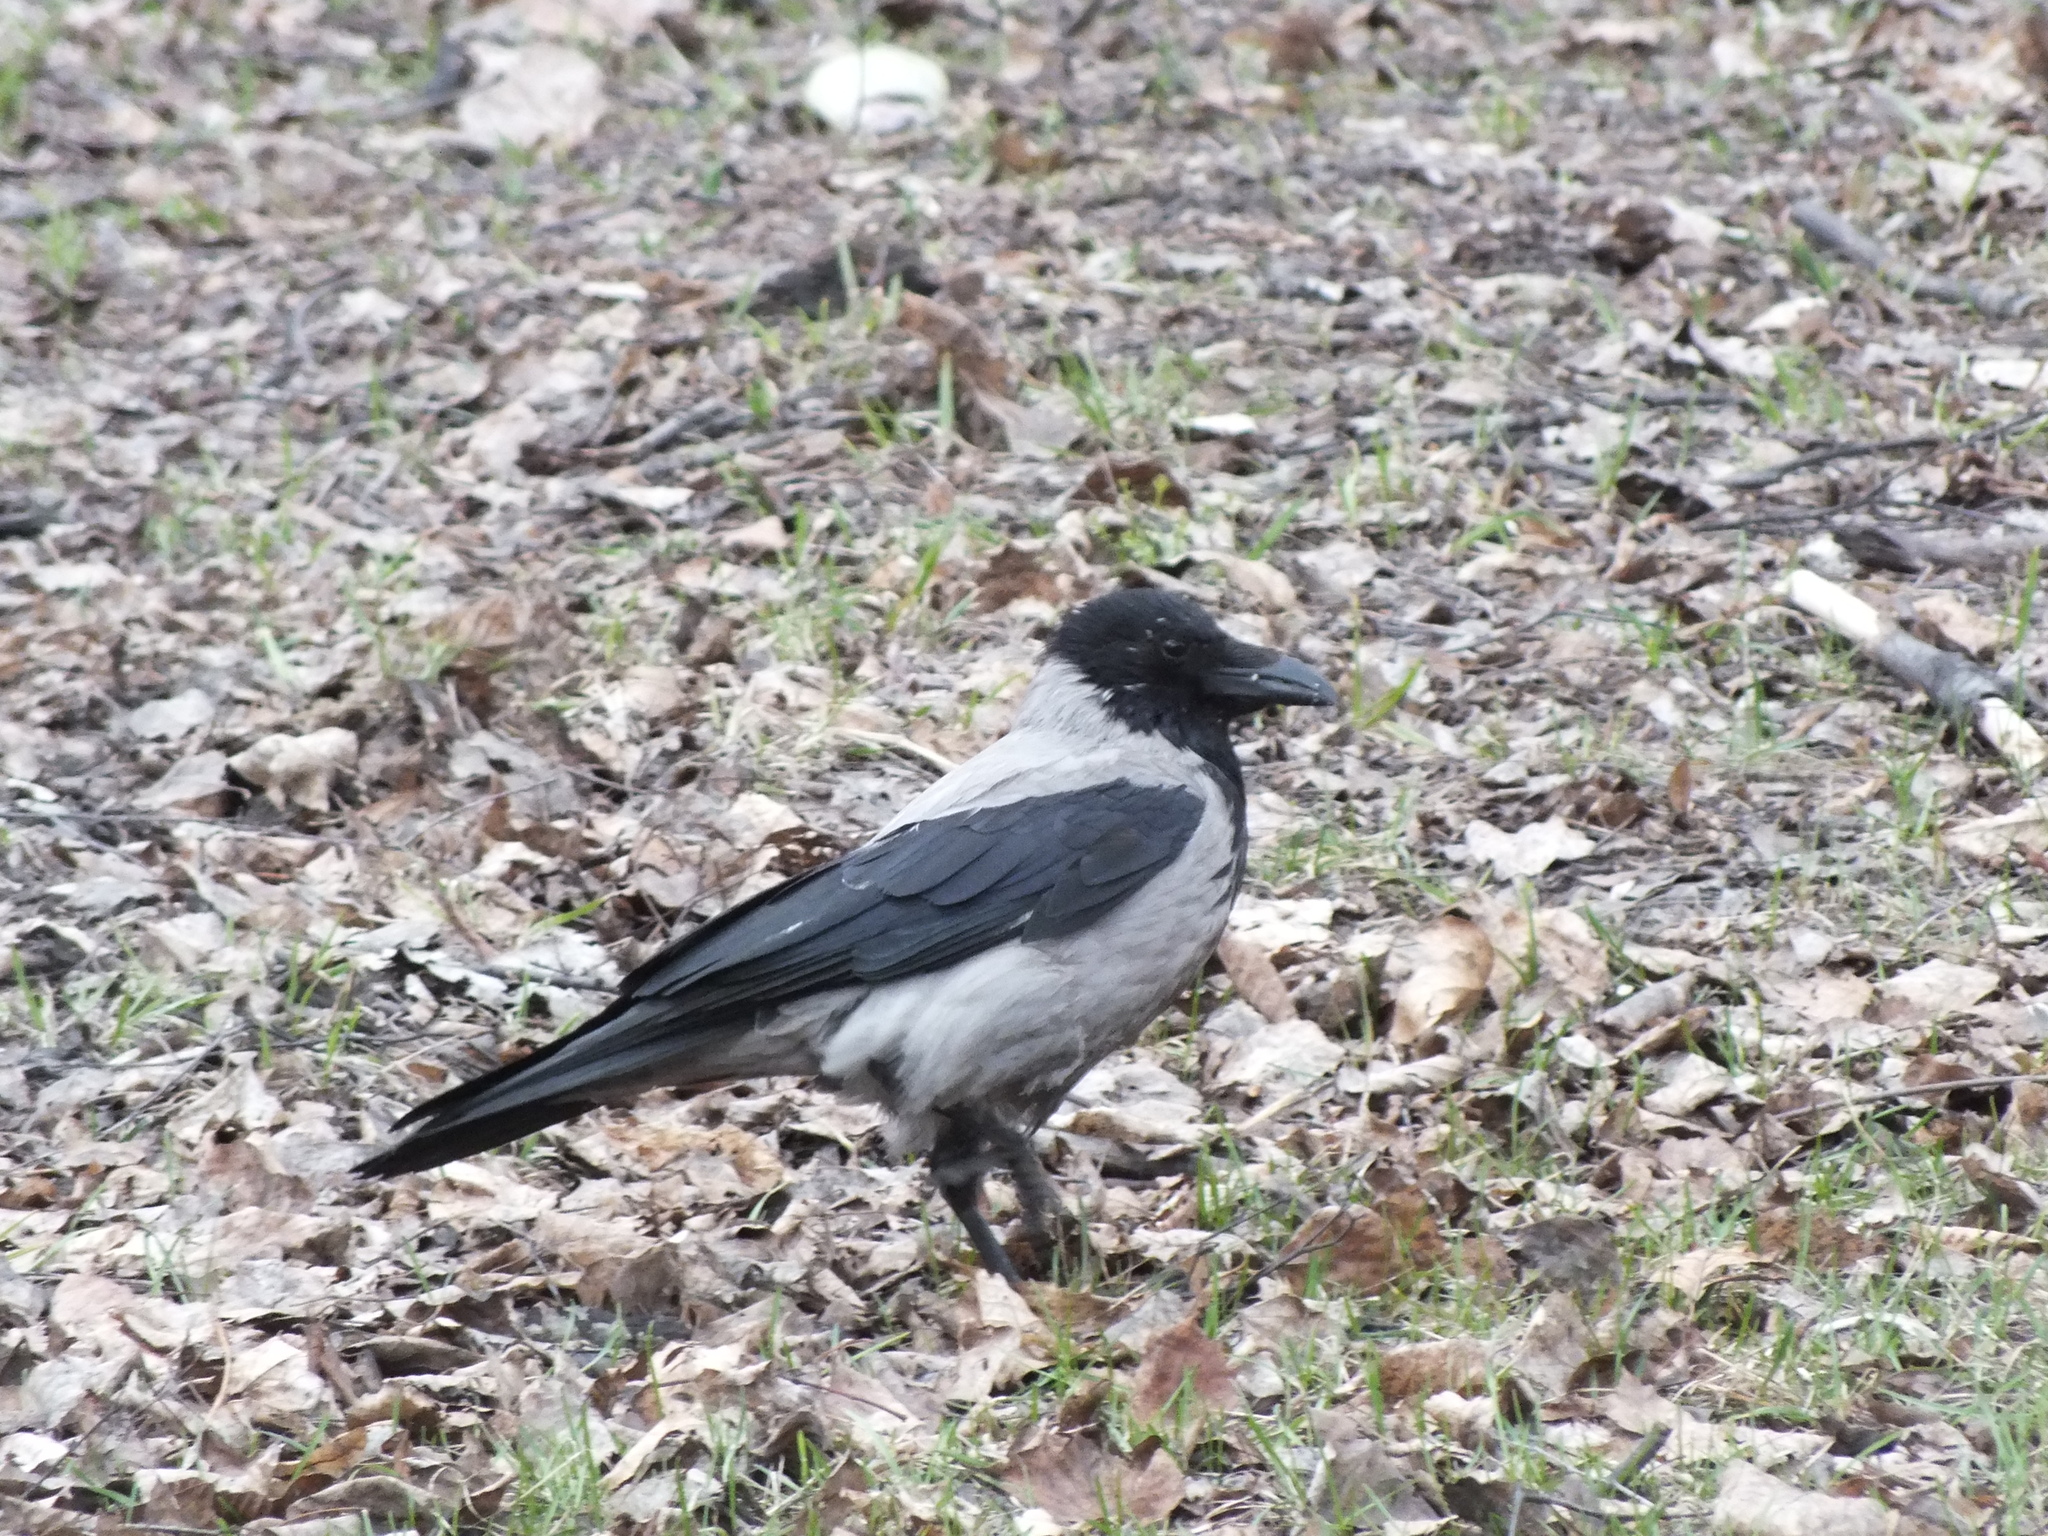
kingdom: Animalia
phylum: Chordata
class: Aves
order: Passeriformes
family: Corvidae
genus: Corvus
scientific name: Corvus cornix
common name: Hooded crow
